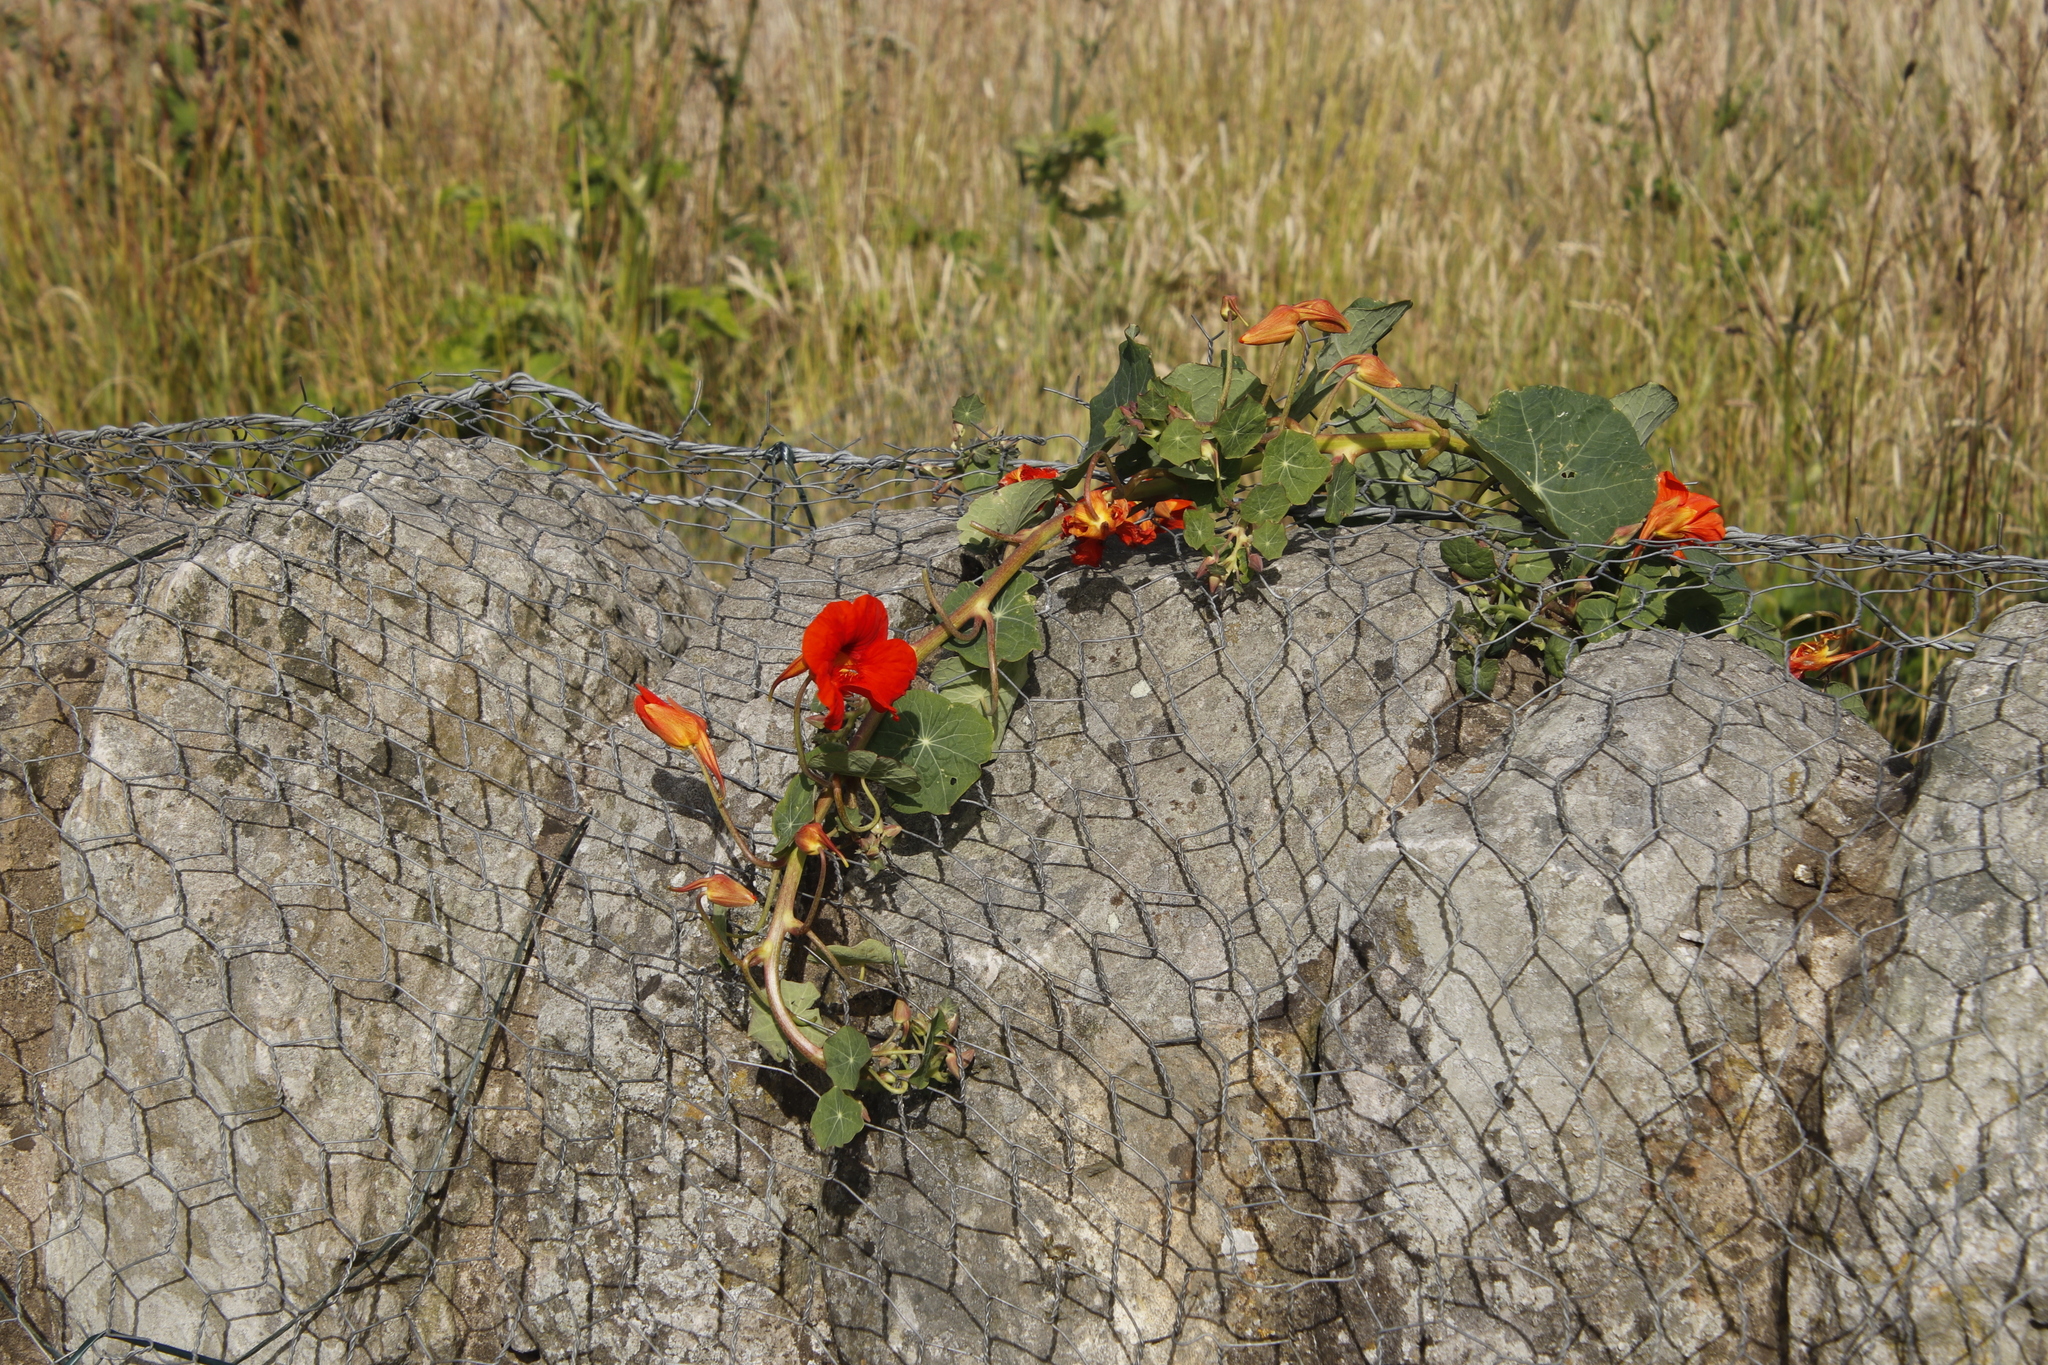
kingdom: Plantae
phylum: Tracheophyta
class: Magnoliopsida
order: Brassicales
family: Tropaeolaceae
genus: Tropaeolum
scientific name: Tropaeolum majus
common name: Nasturtium
